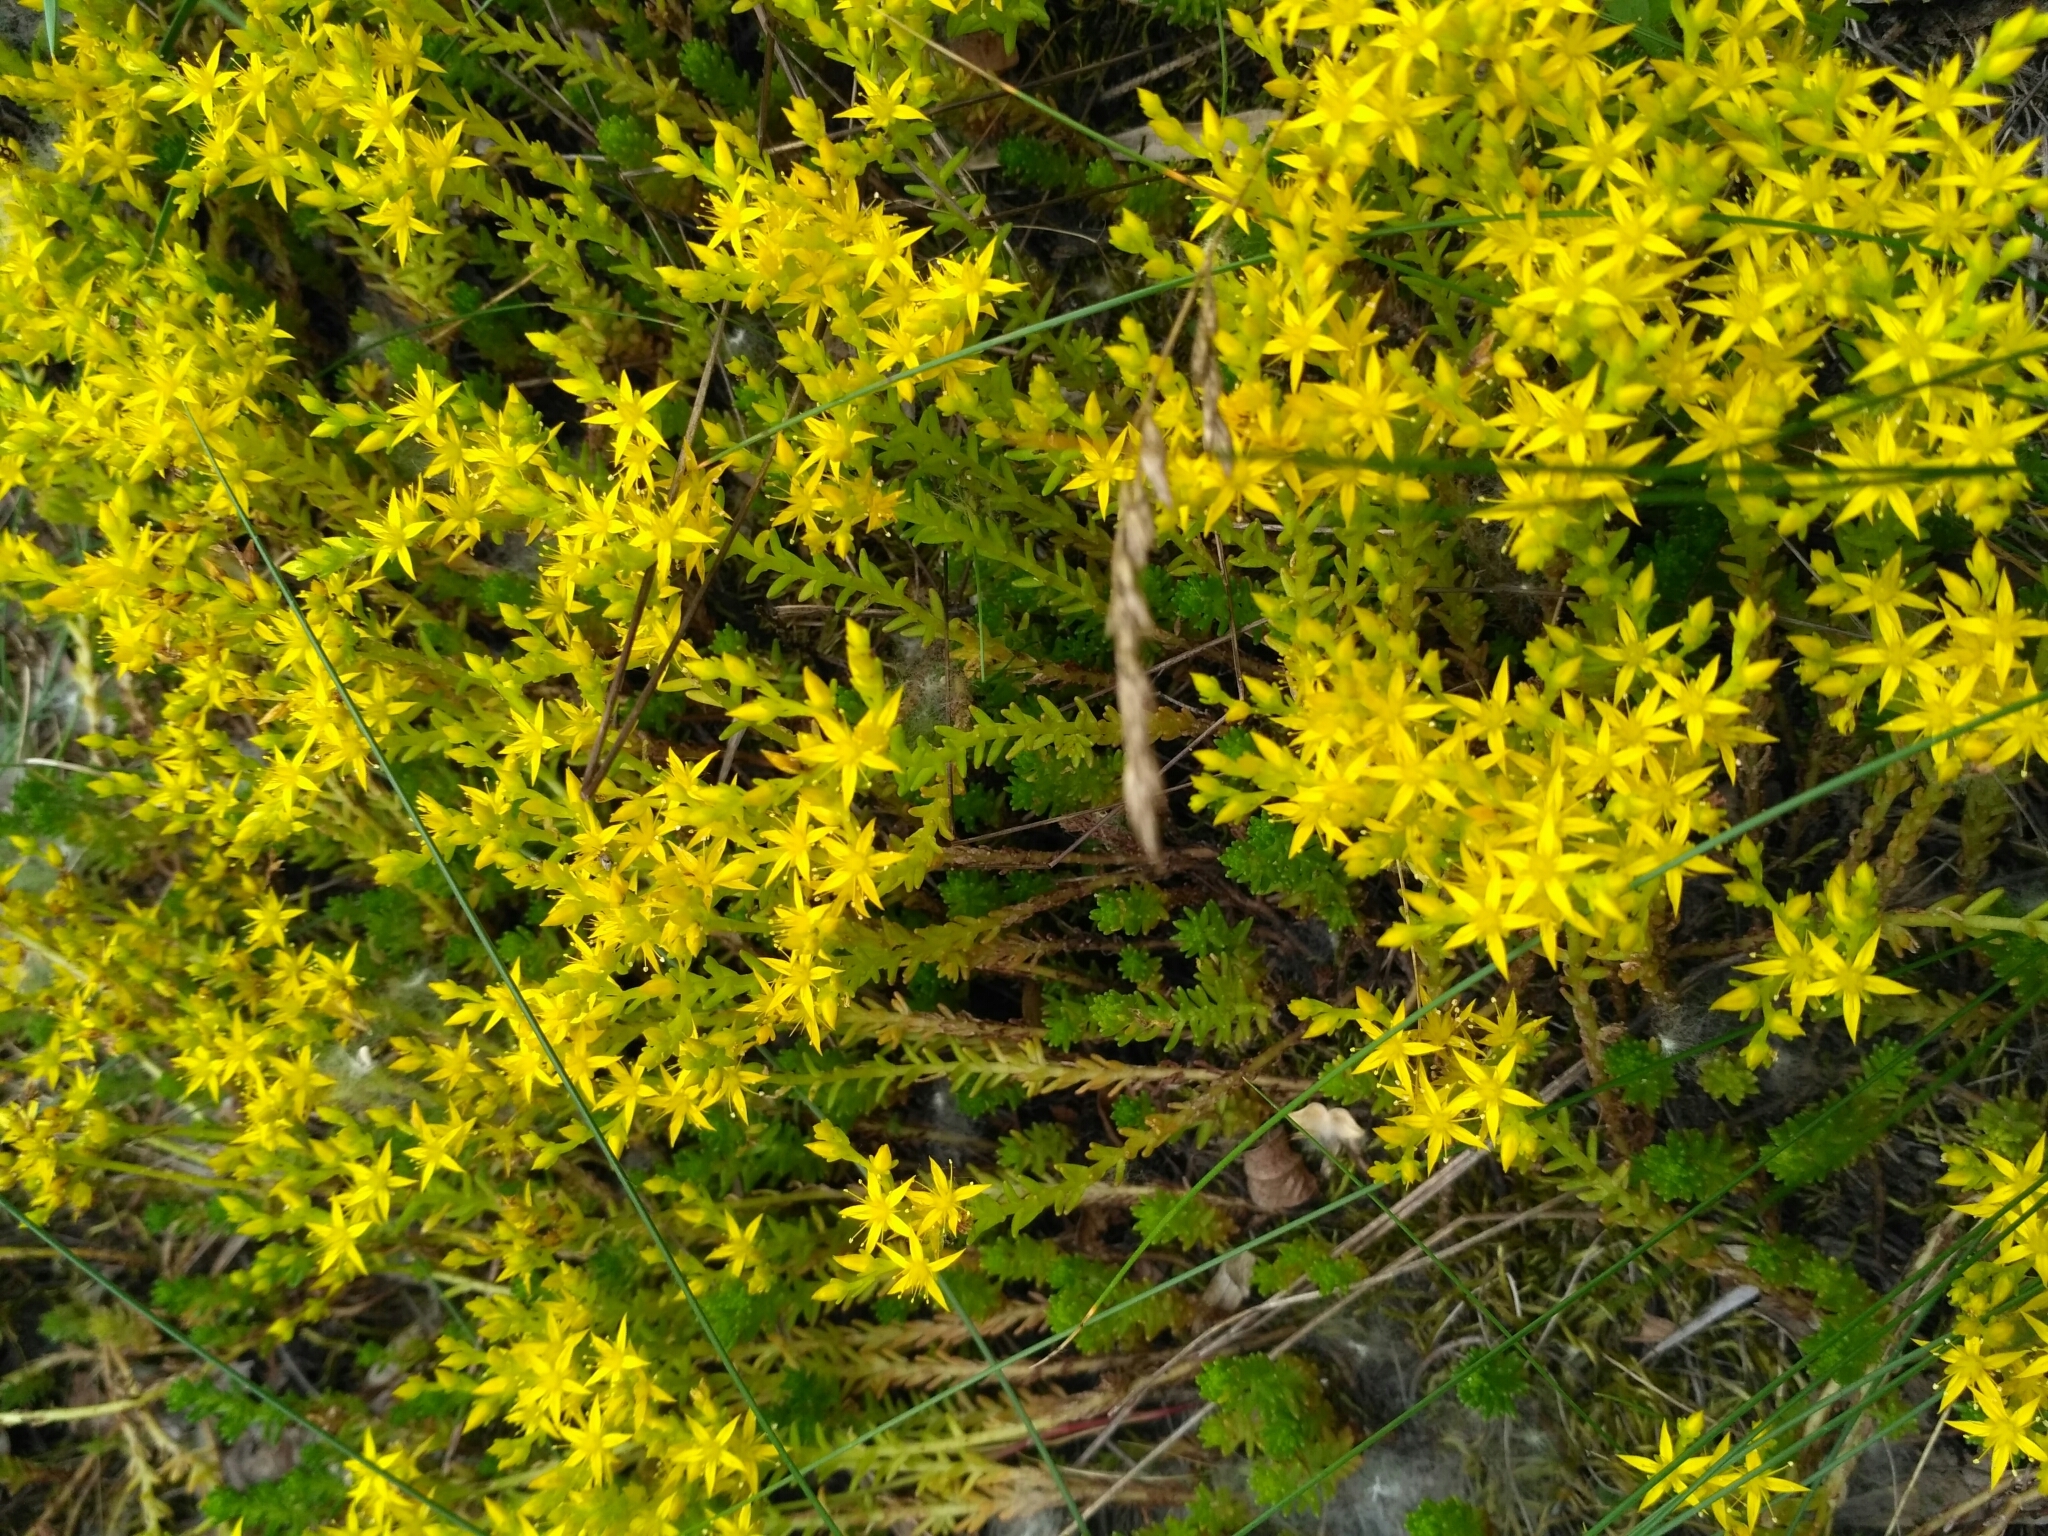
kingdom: Plantae
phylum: Tracheophyta
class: Magnoliopsida
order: Saxifragales
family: Crassulaceae
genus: Sedum
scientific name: Sedum sexangulare
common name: Tasteless stonecrop
